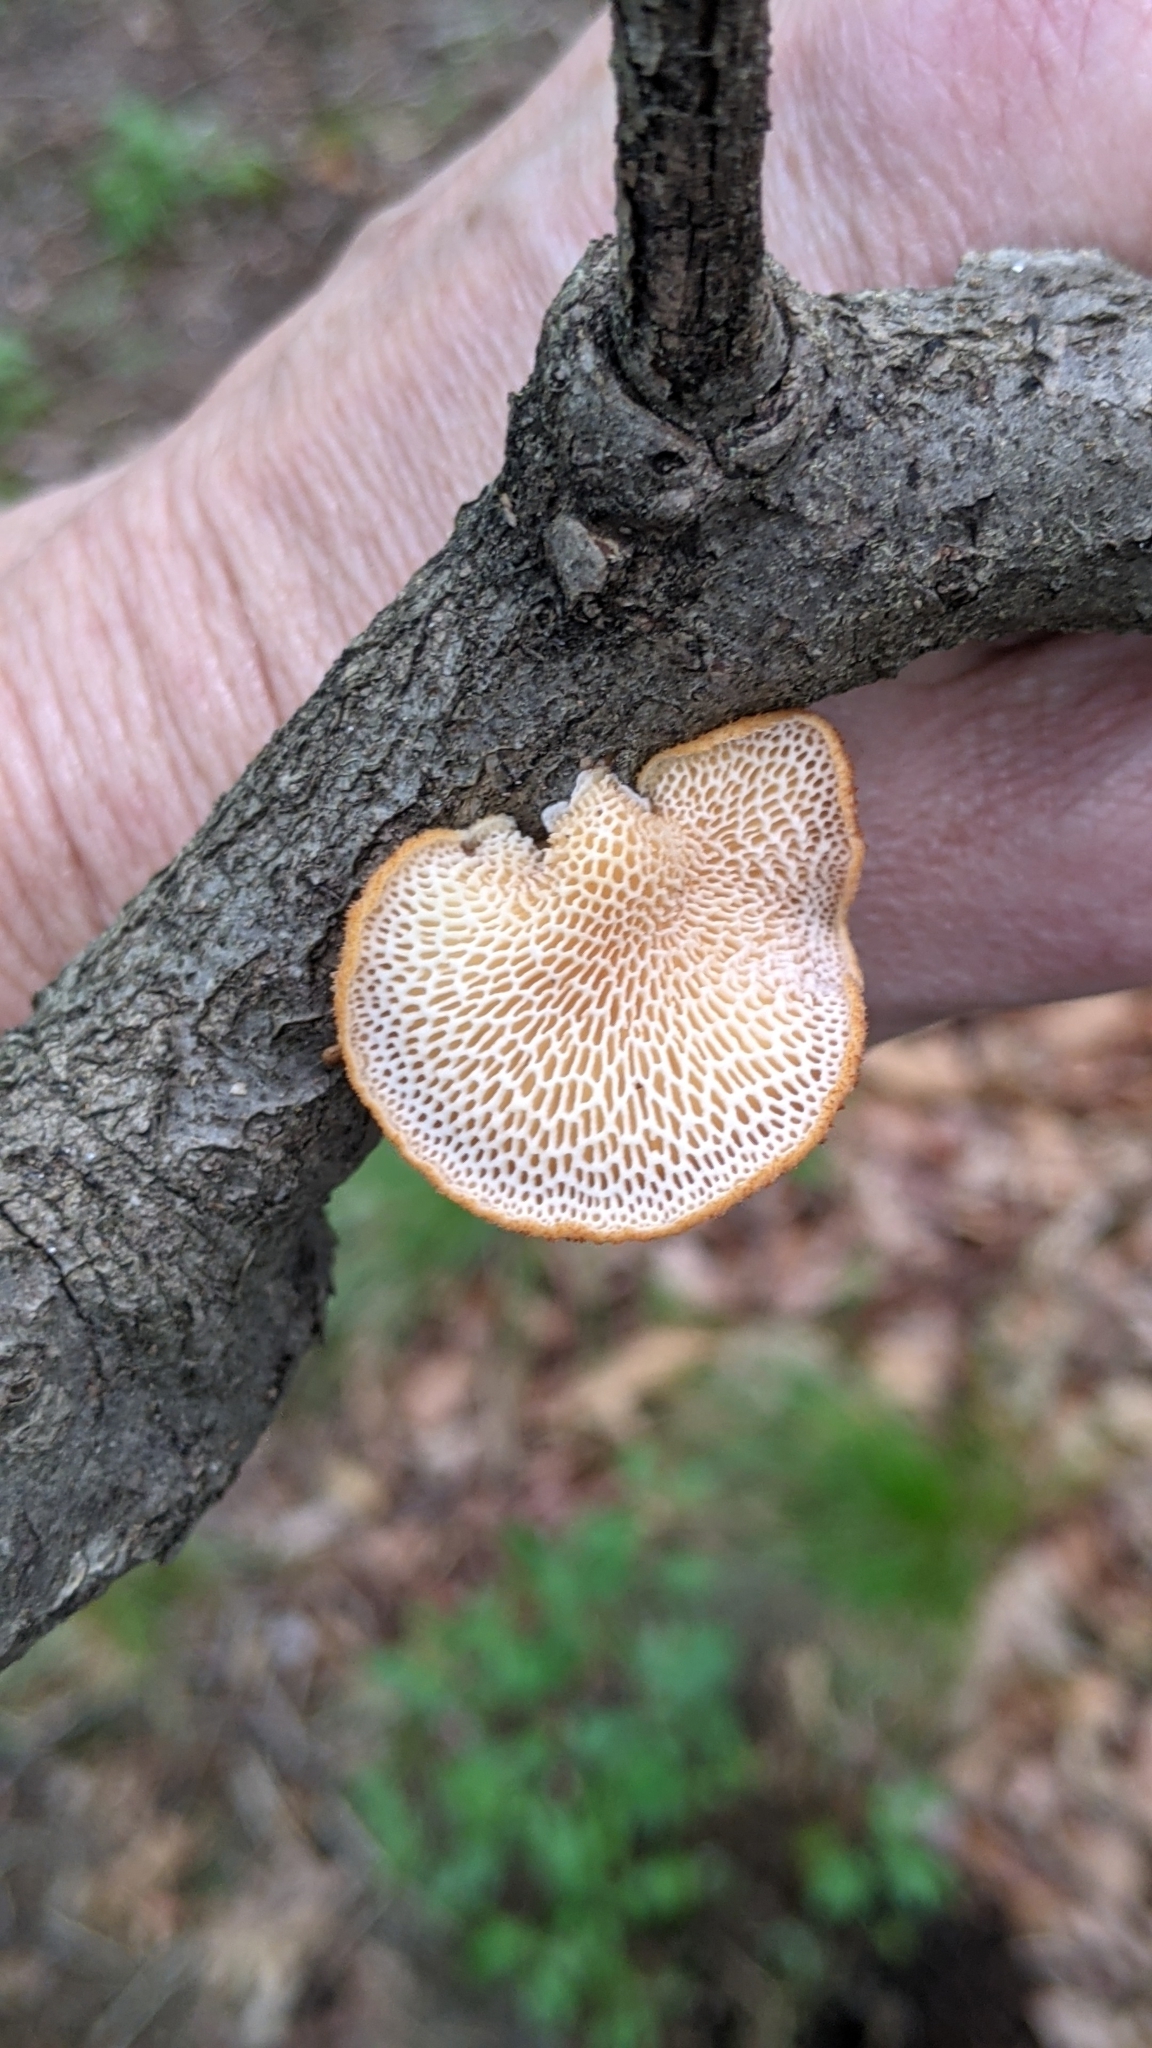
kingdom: Fungi
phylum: Basidiomycota
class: Agaricomycetes
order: Polyporales
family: Polyporaceae
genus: Neofavolus
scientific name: Neofavolus alveolaris
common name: Hexagonal-pored polypore
